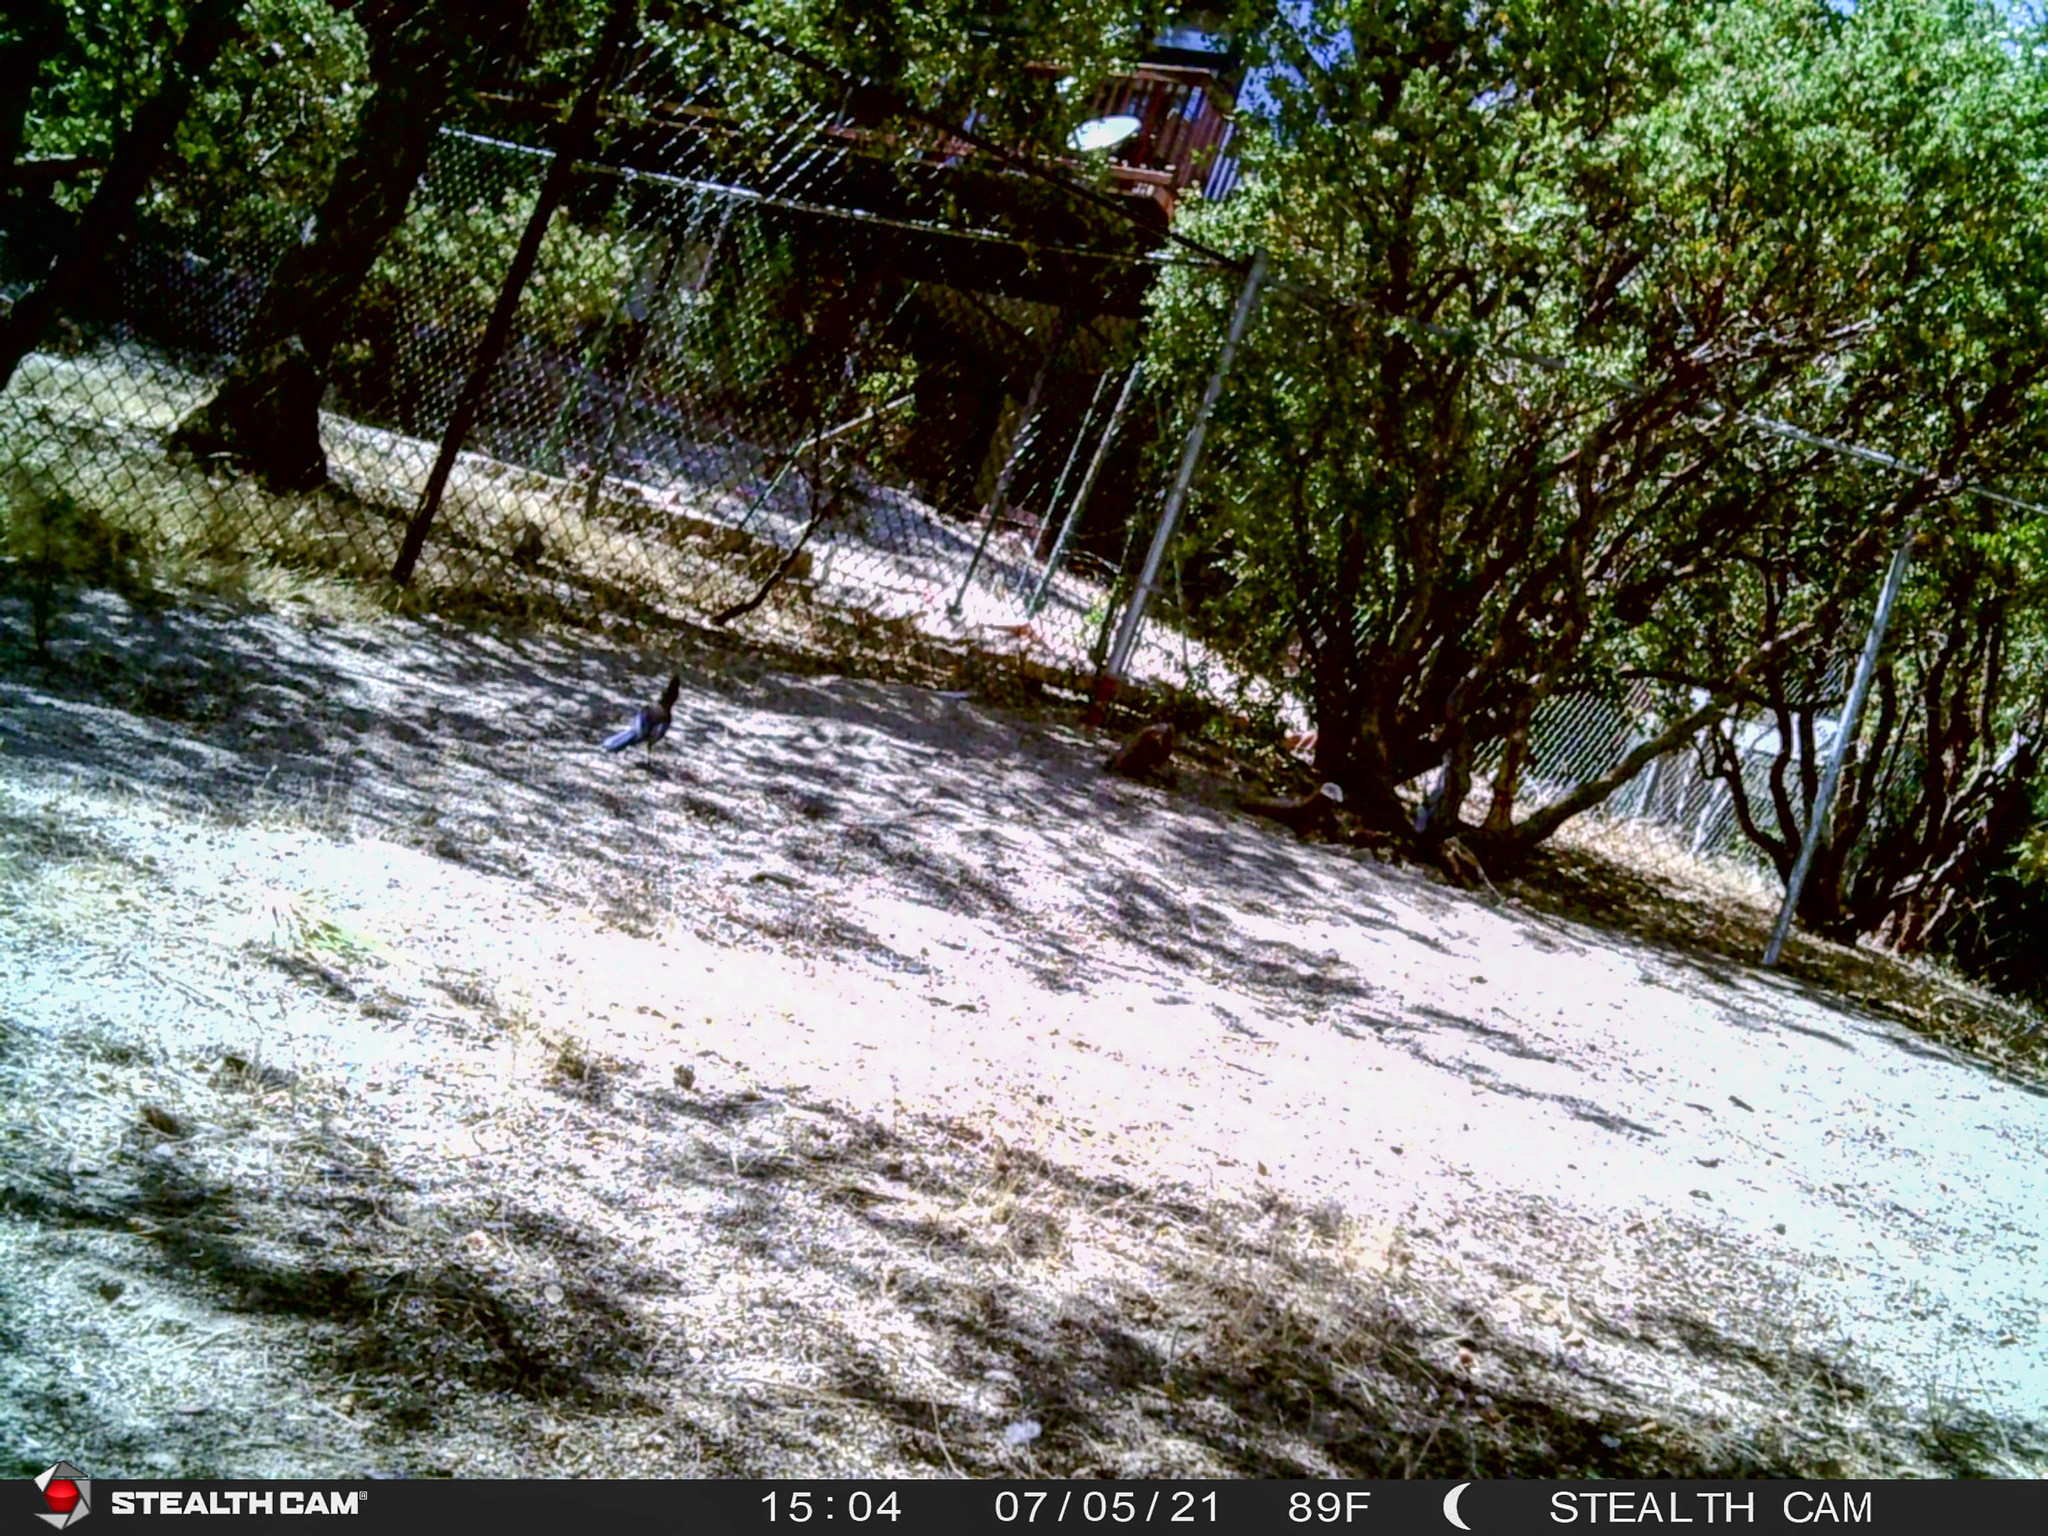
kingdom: Animalia
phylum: Chordata
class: Aves
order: Passeriformes
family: Corvidae
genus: Cyanocitta
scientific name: Cyanocitta stelleri
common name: Steller's jay
